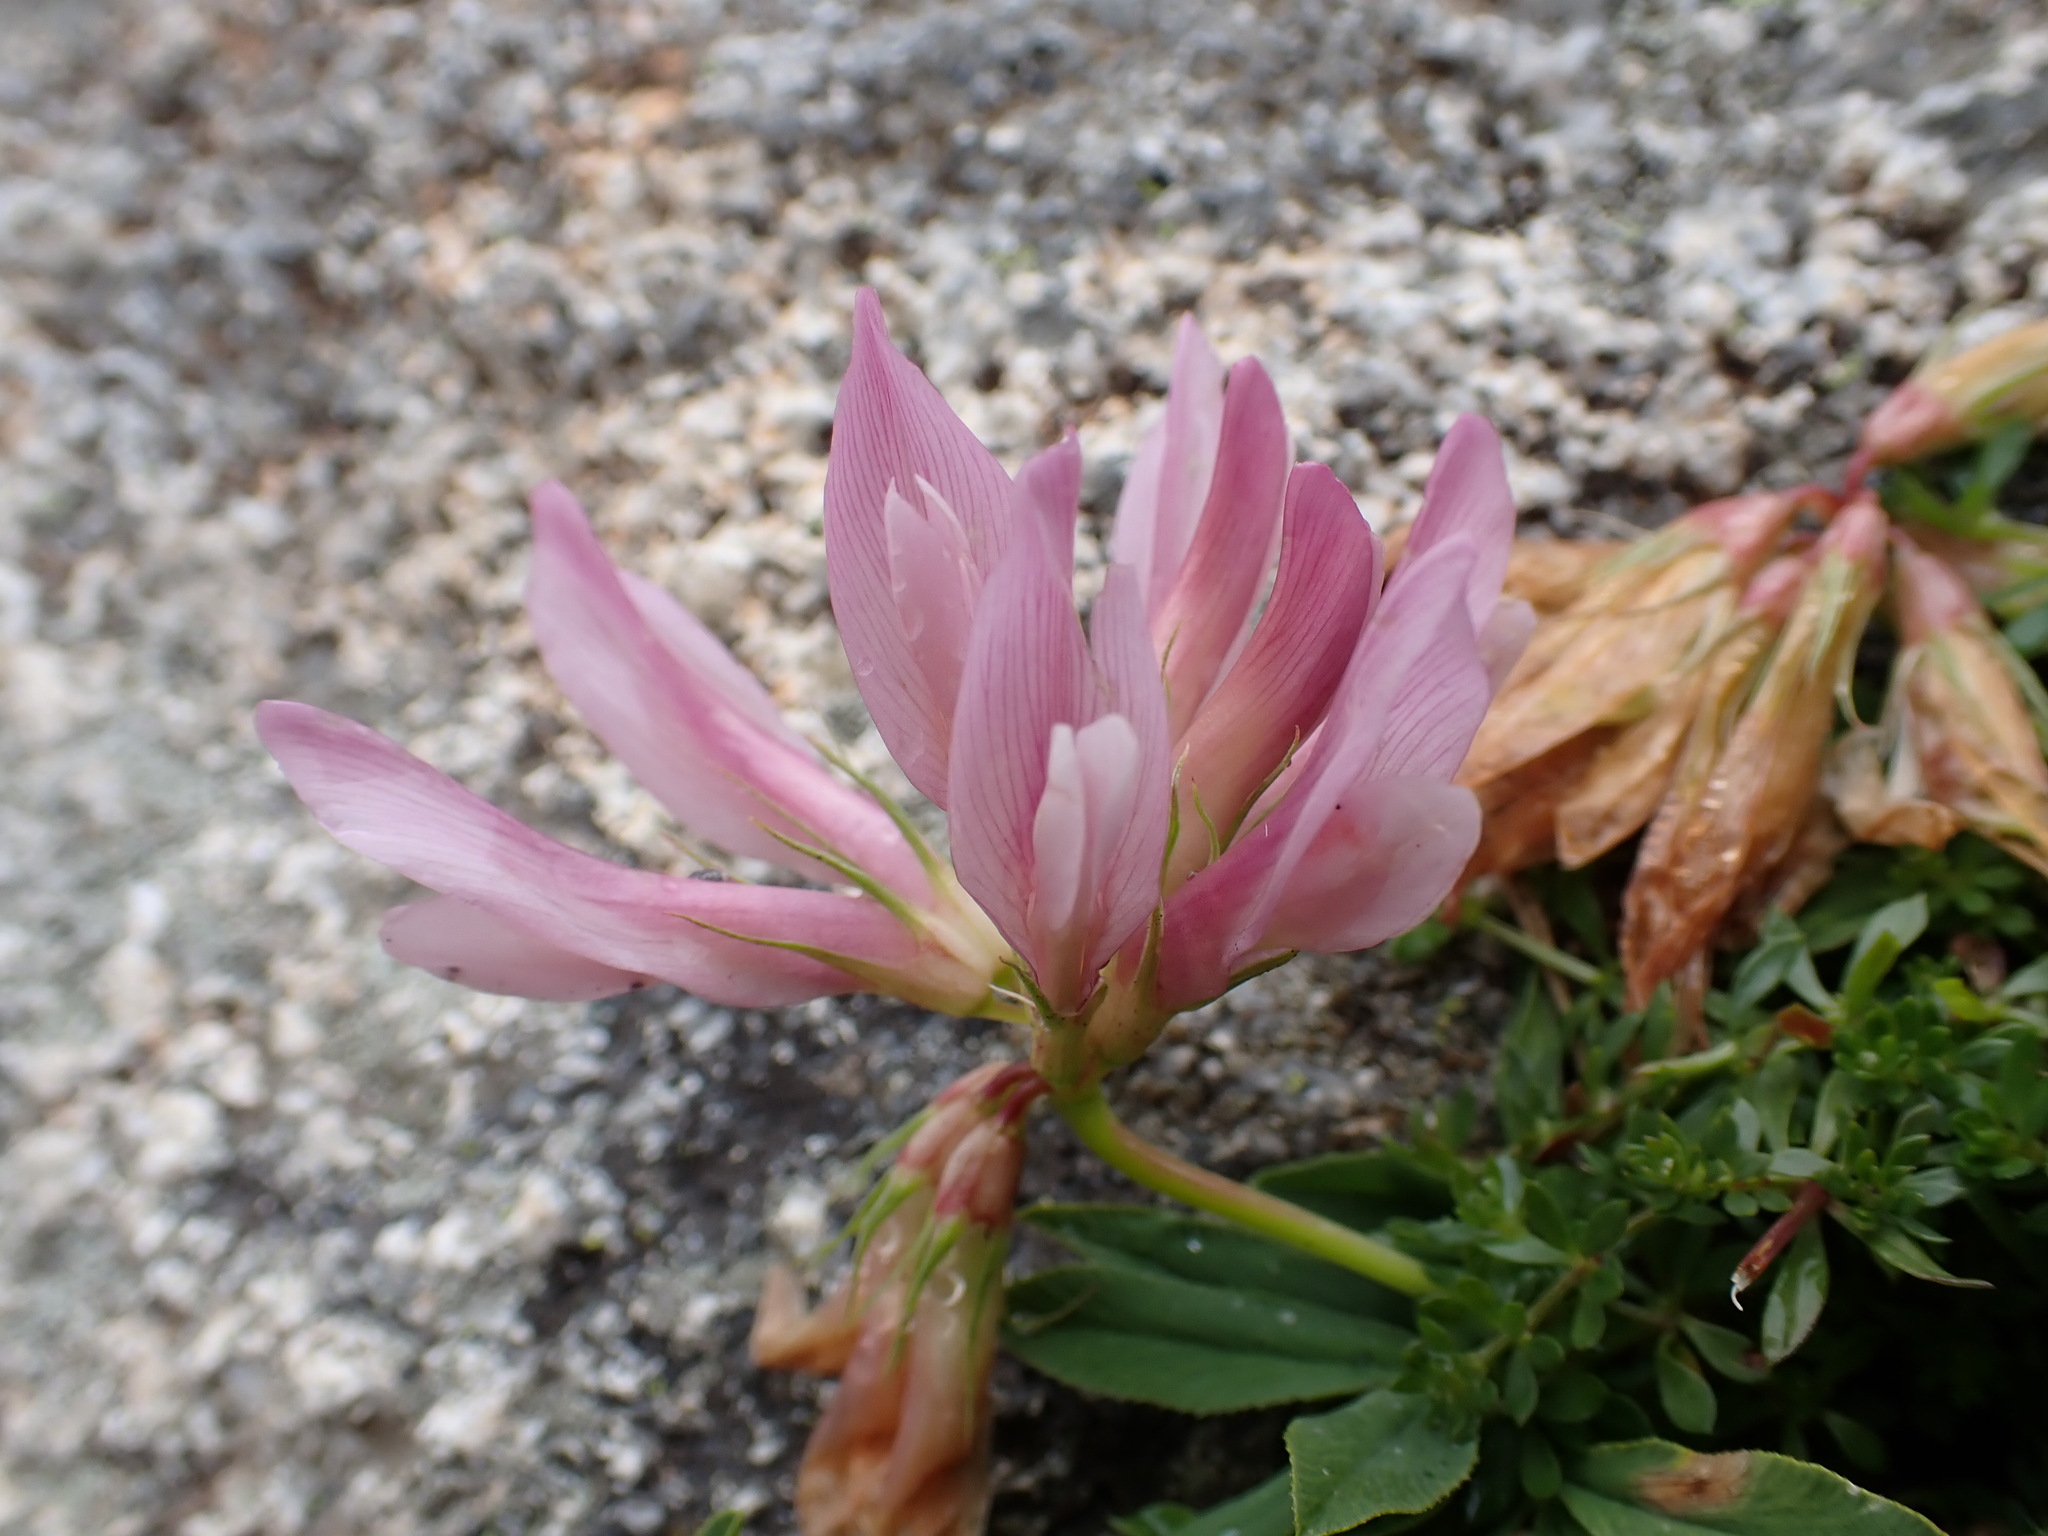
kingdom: Plantae
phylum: Tracheophyta
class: Magnoliopsida
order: Fabales
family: Fabaceae
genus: Trifolium
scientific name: Trifolium alpinum
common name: Alpine clover
